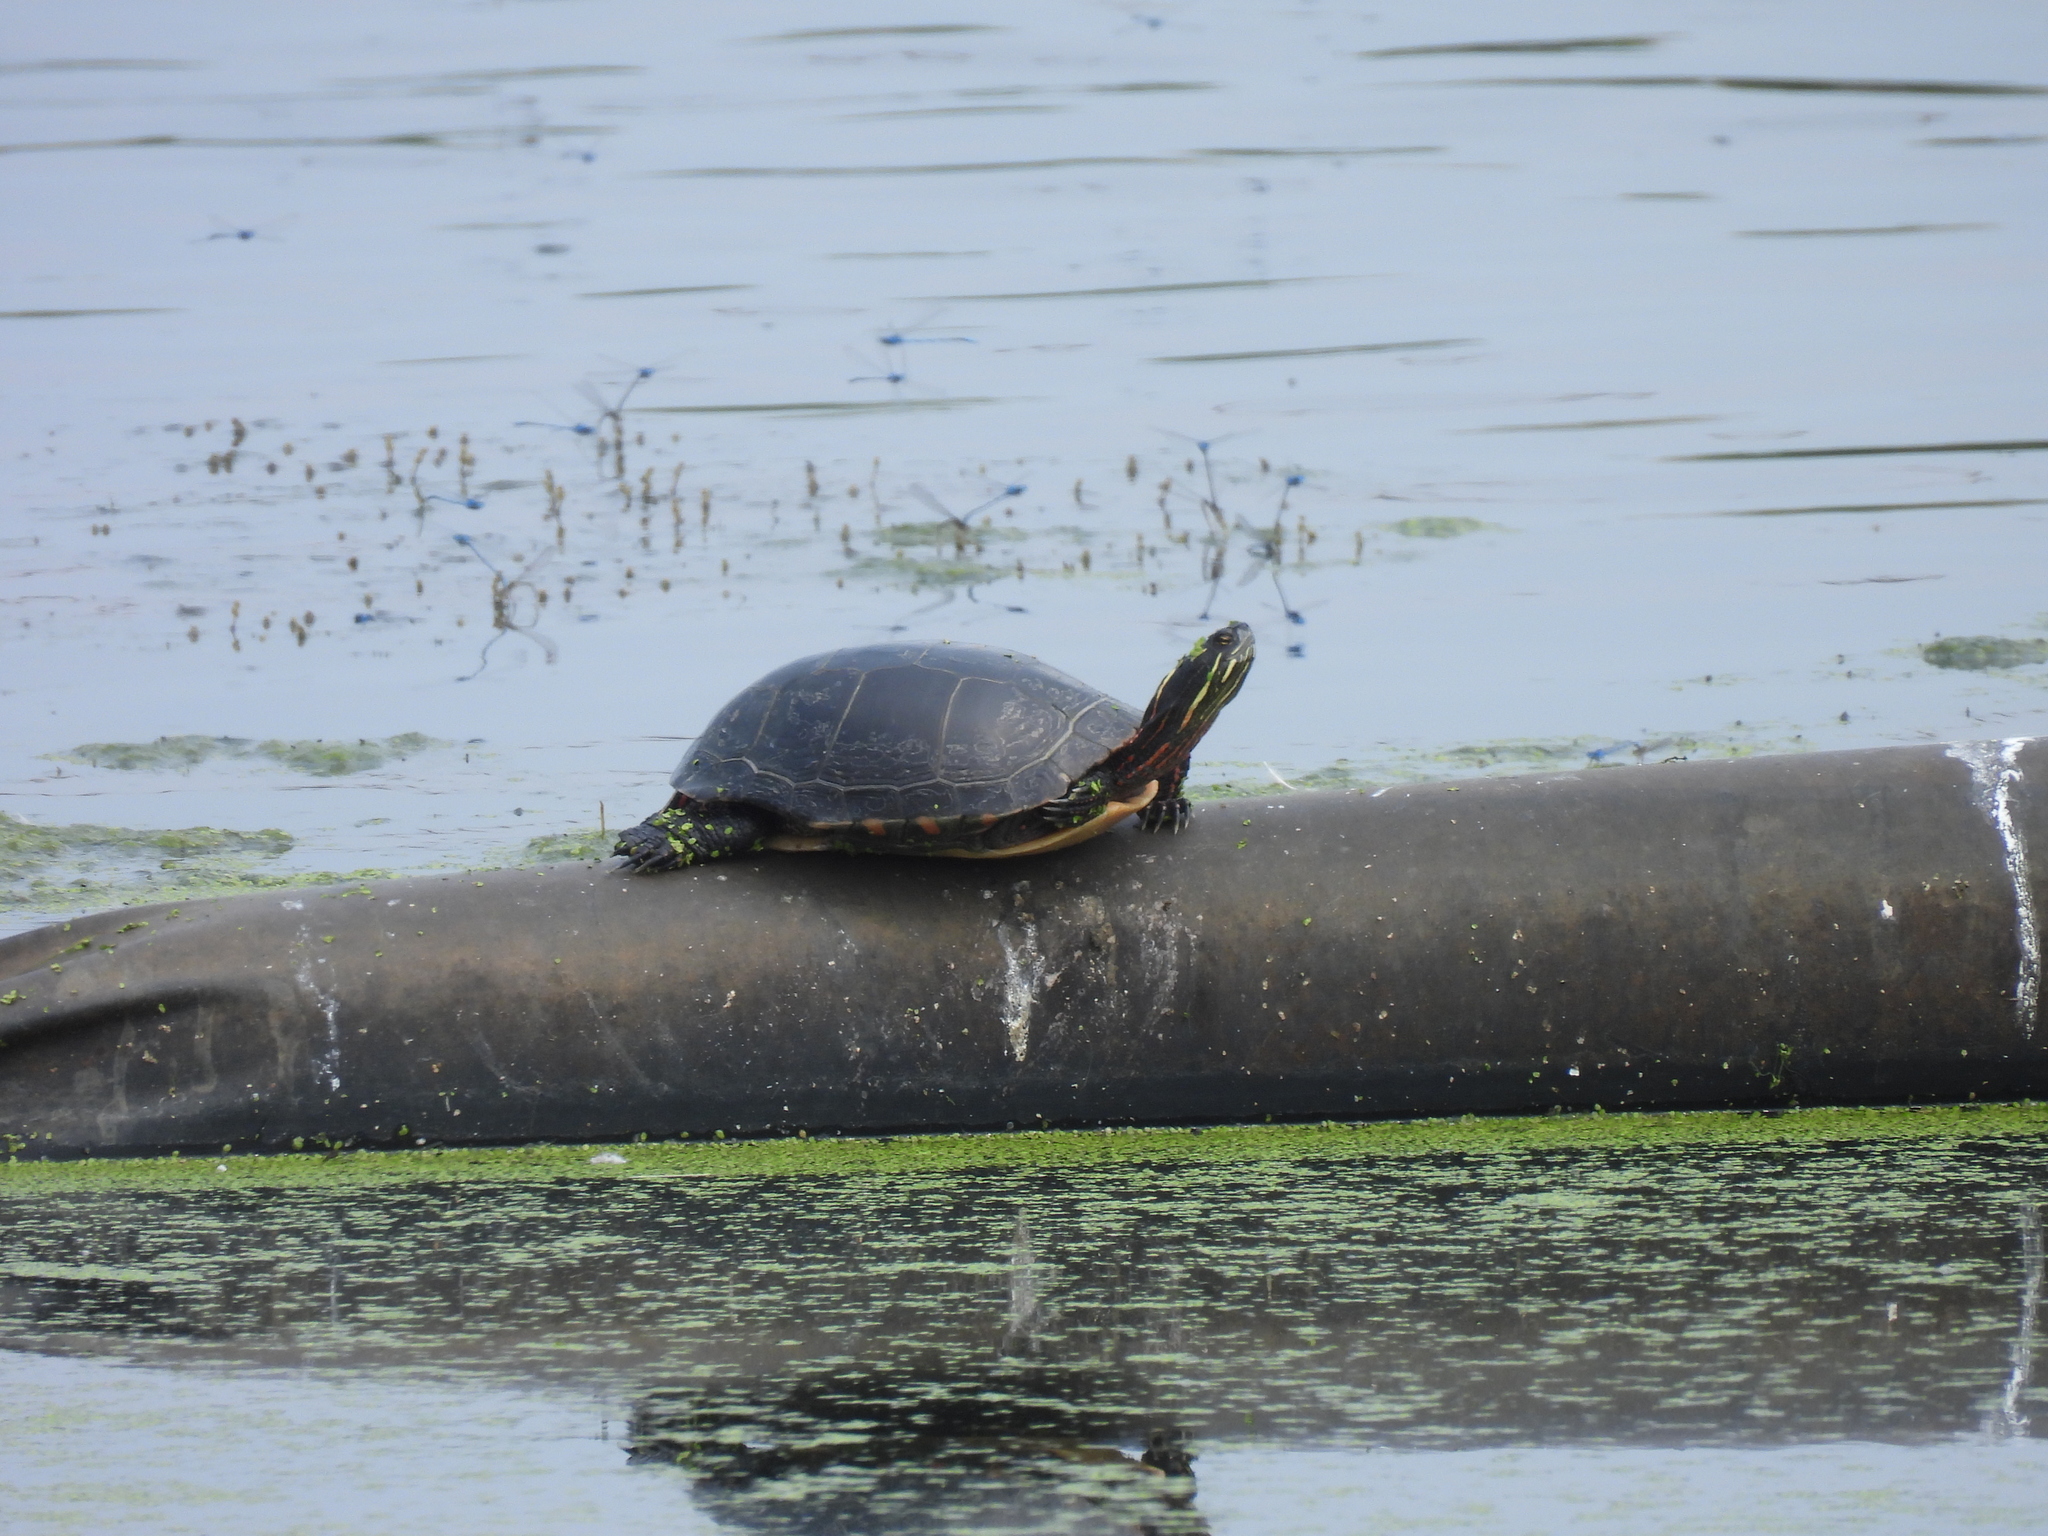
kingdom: Animalia
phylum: Chordata
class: Testudines
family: Emydidae
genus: Chrysemys
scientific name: Chrysemys picta
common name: Painted turtle
